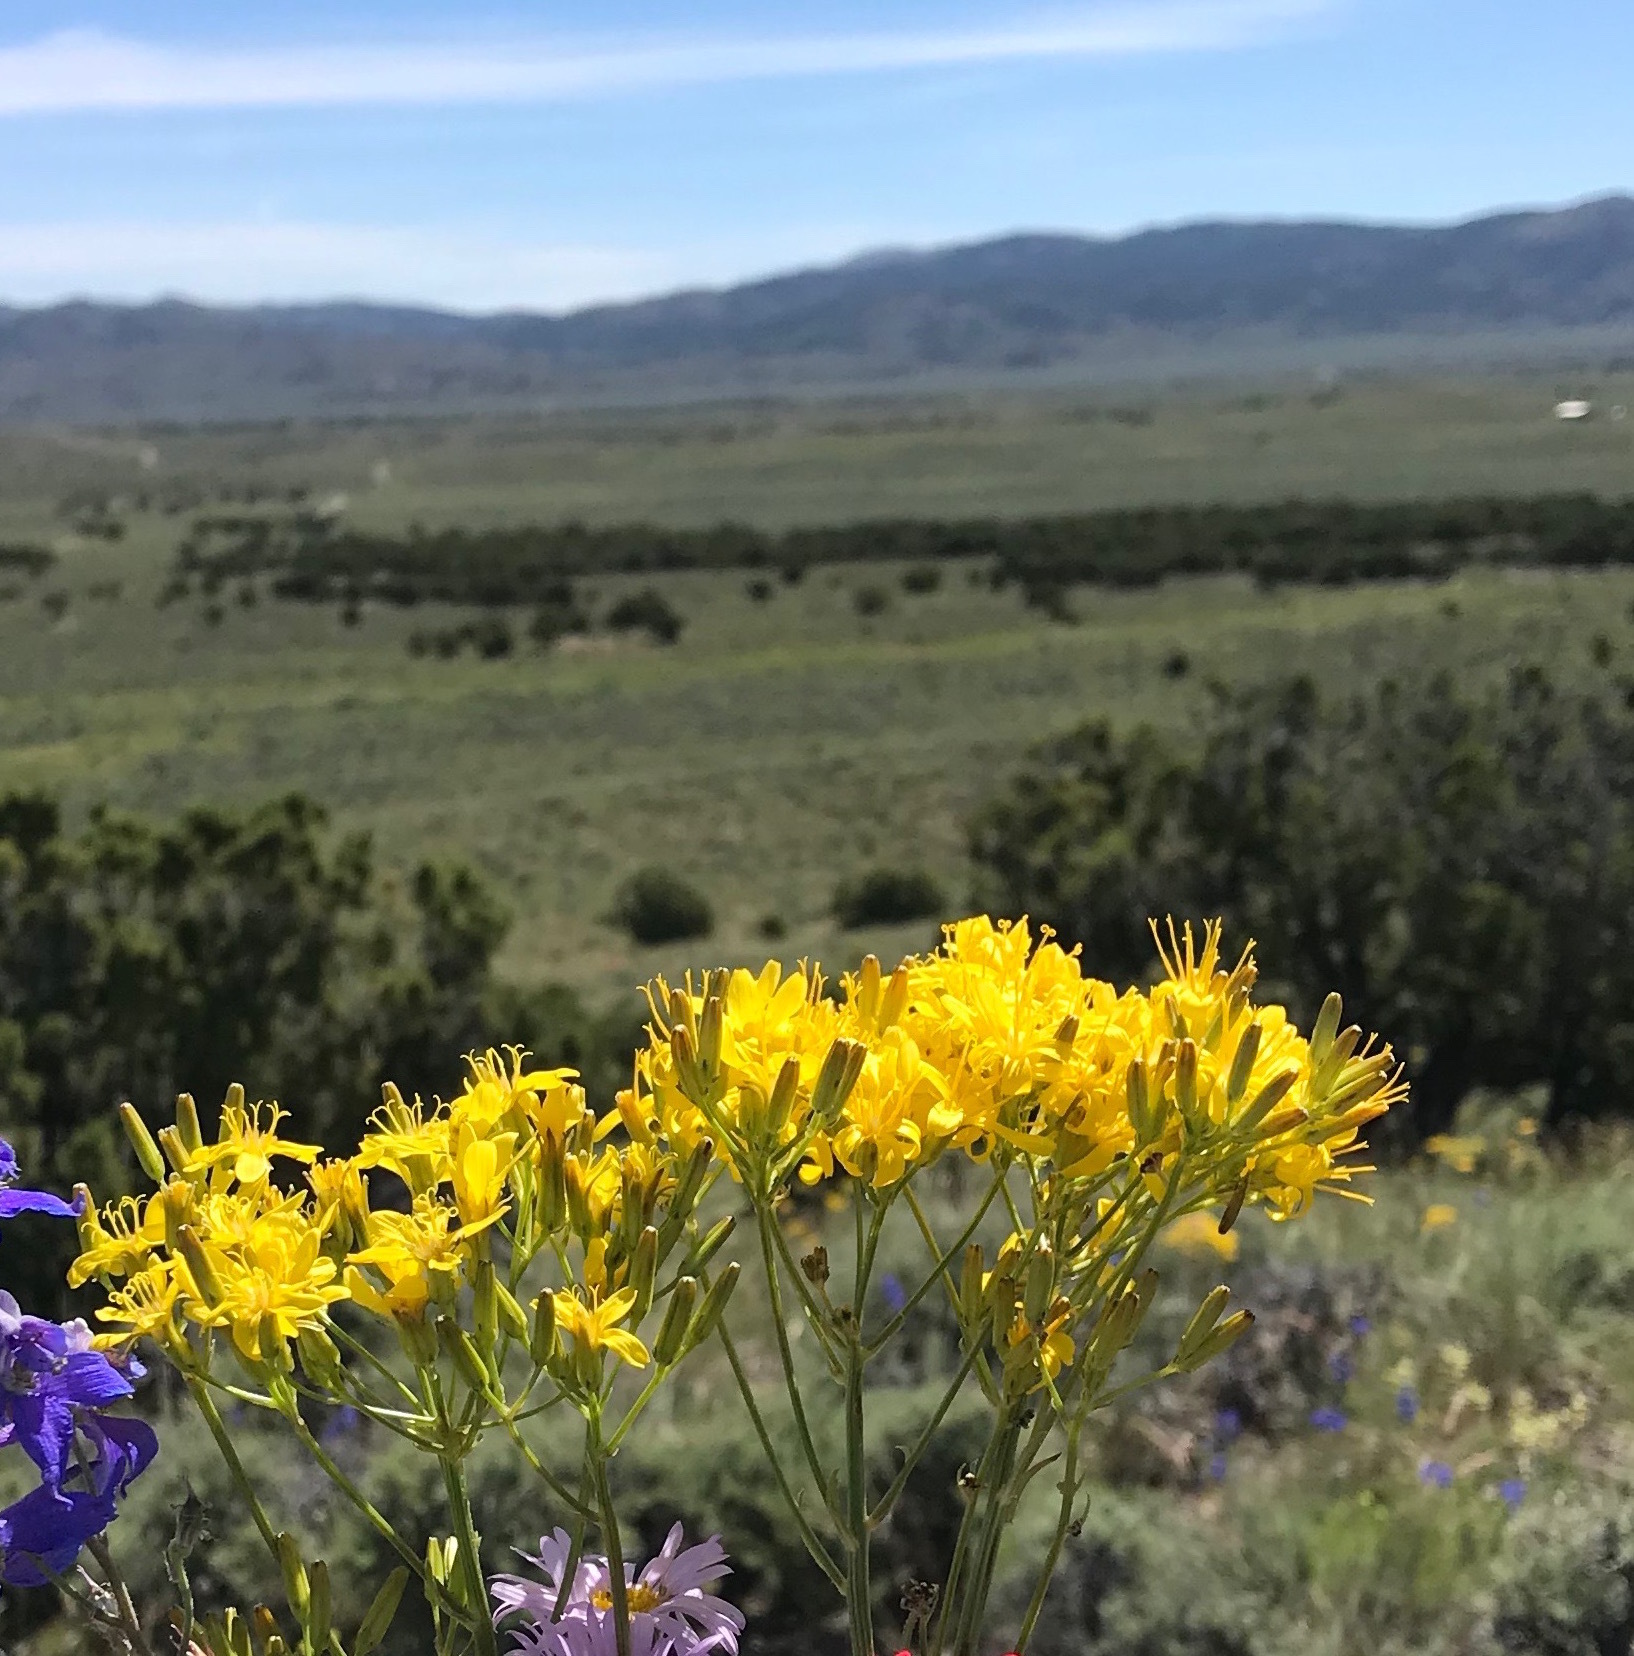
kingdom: Plantae
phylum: Tracheophyta
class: Magnoliopsida
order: Asterales
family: Asteraceae
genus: Crepis
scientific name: Crepis acuminata
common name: Longleaf hawk's-beard
